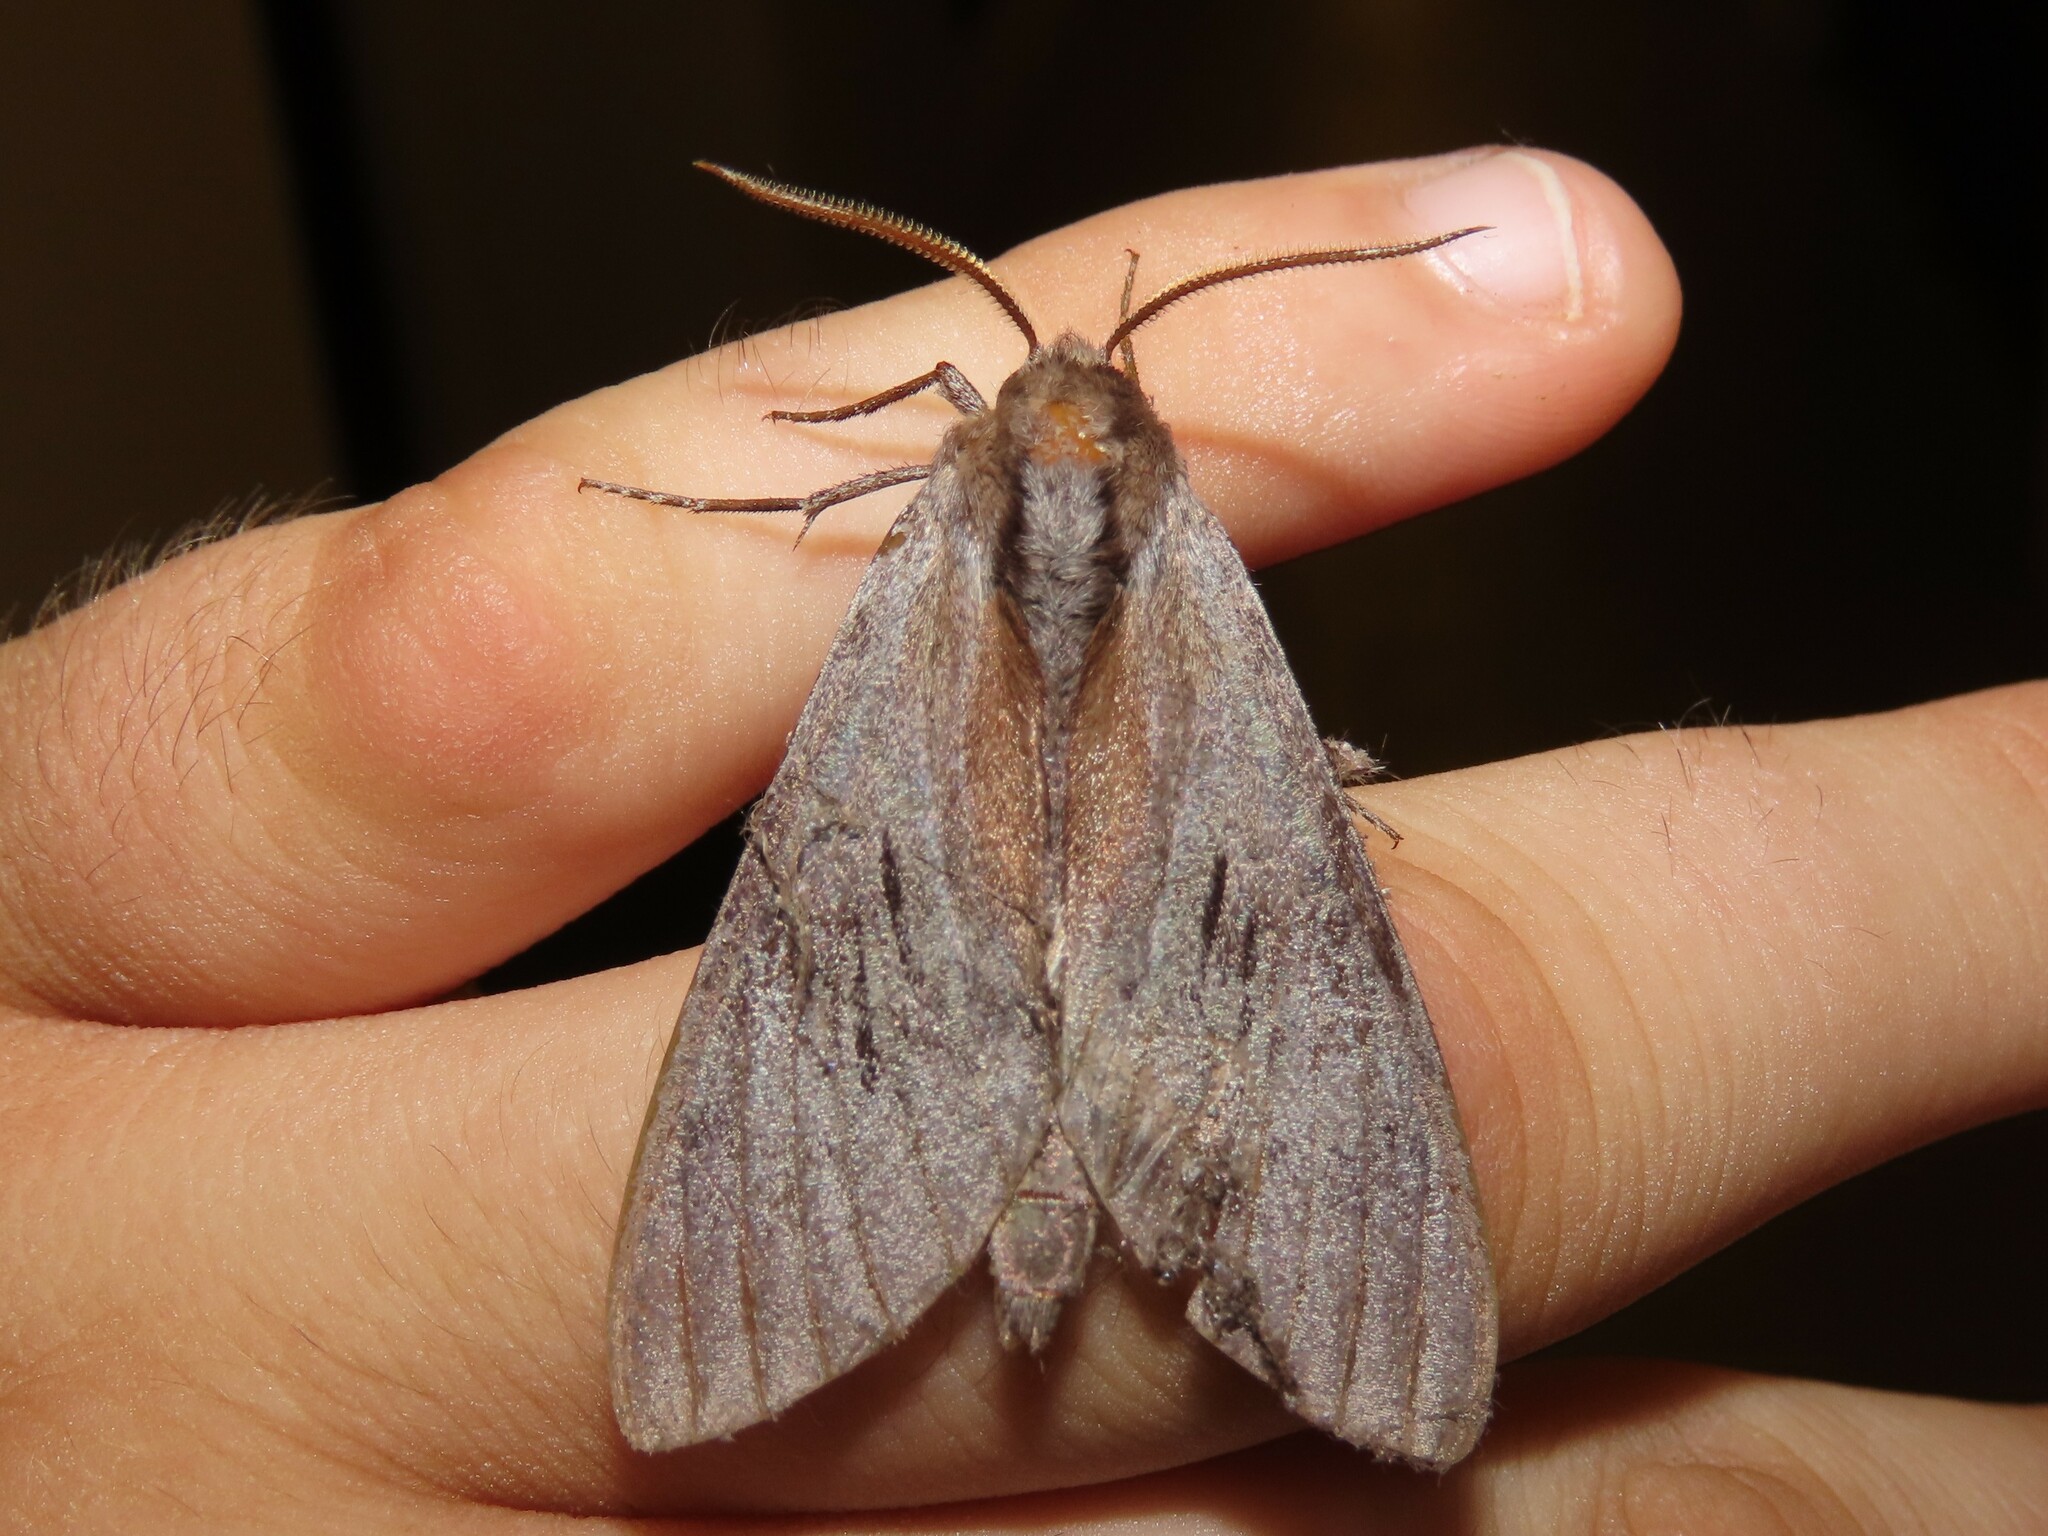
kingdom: Animalia
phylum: Arthropoda
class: Insecta
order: Lepidoptera
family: Sphingidae
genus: Lapara
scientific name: Lapara coniferarum
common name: Southern pine sphinx
